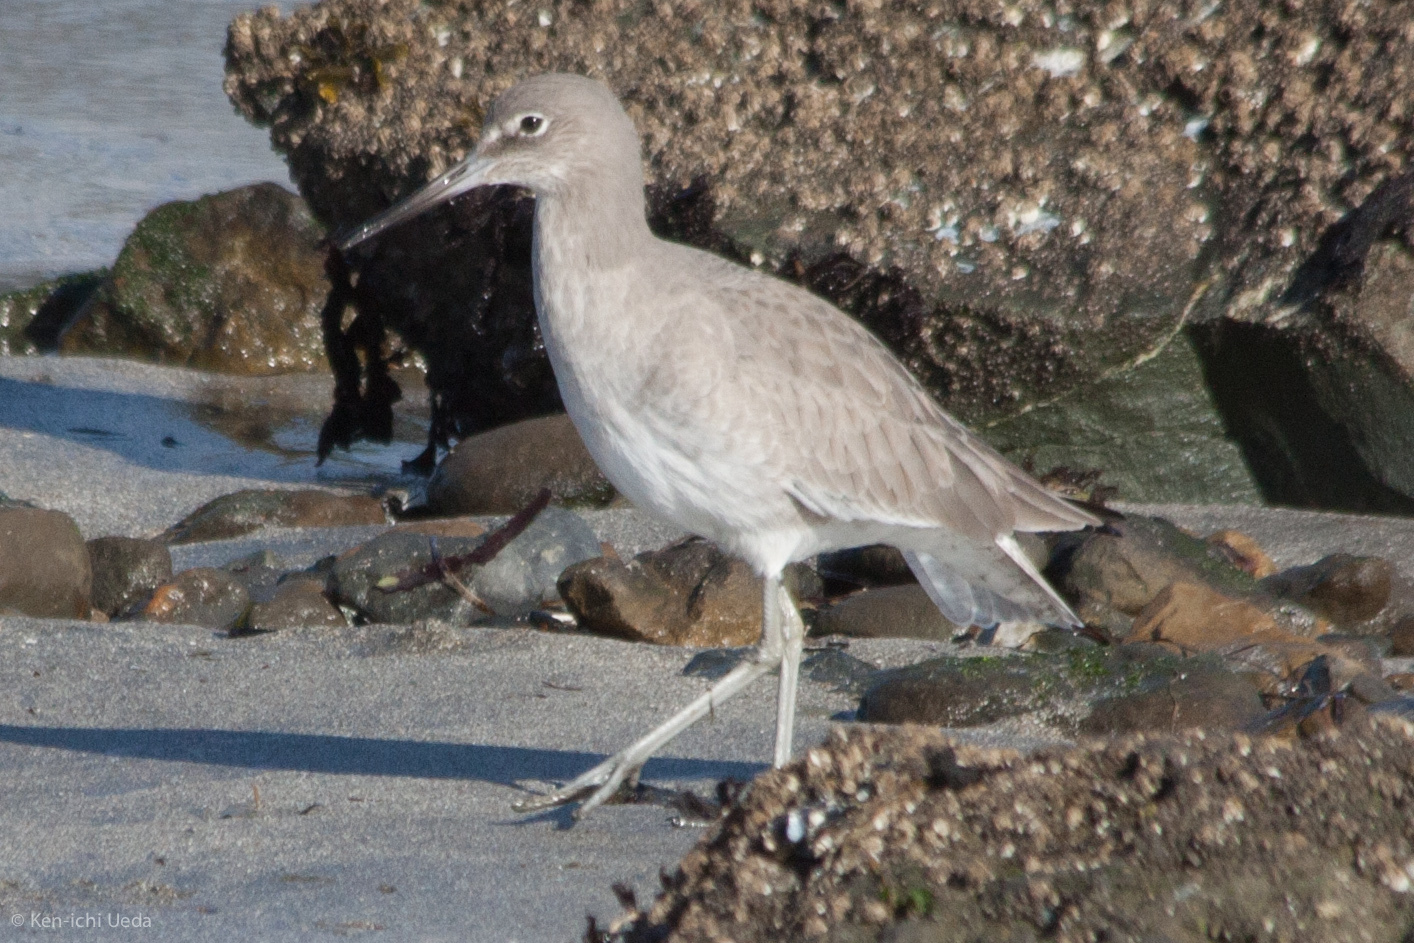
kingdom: Animalia
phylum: Chordata
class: Aves
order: Charadriiformes
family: Scolopacidae
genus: Tringa
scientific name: Tringa semipalmata
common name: Willet
